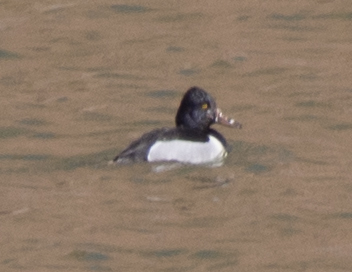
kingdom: Animalia
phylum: Chordata
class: Aves
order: Anseriformes
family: Anatidae
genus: Aythya
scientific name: Aythya collaris
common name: Ring-necked duck
